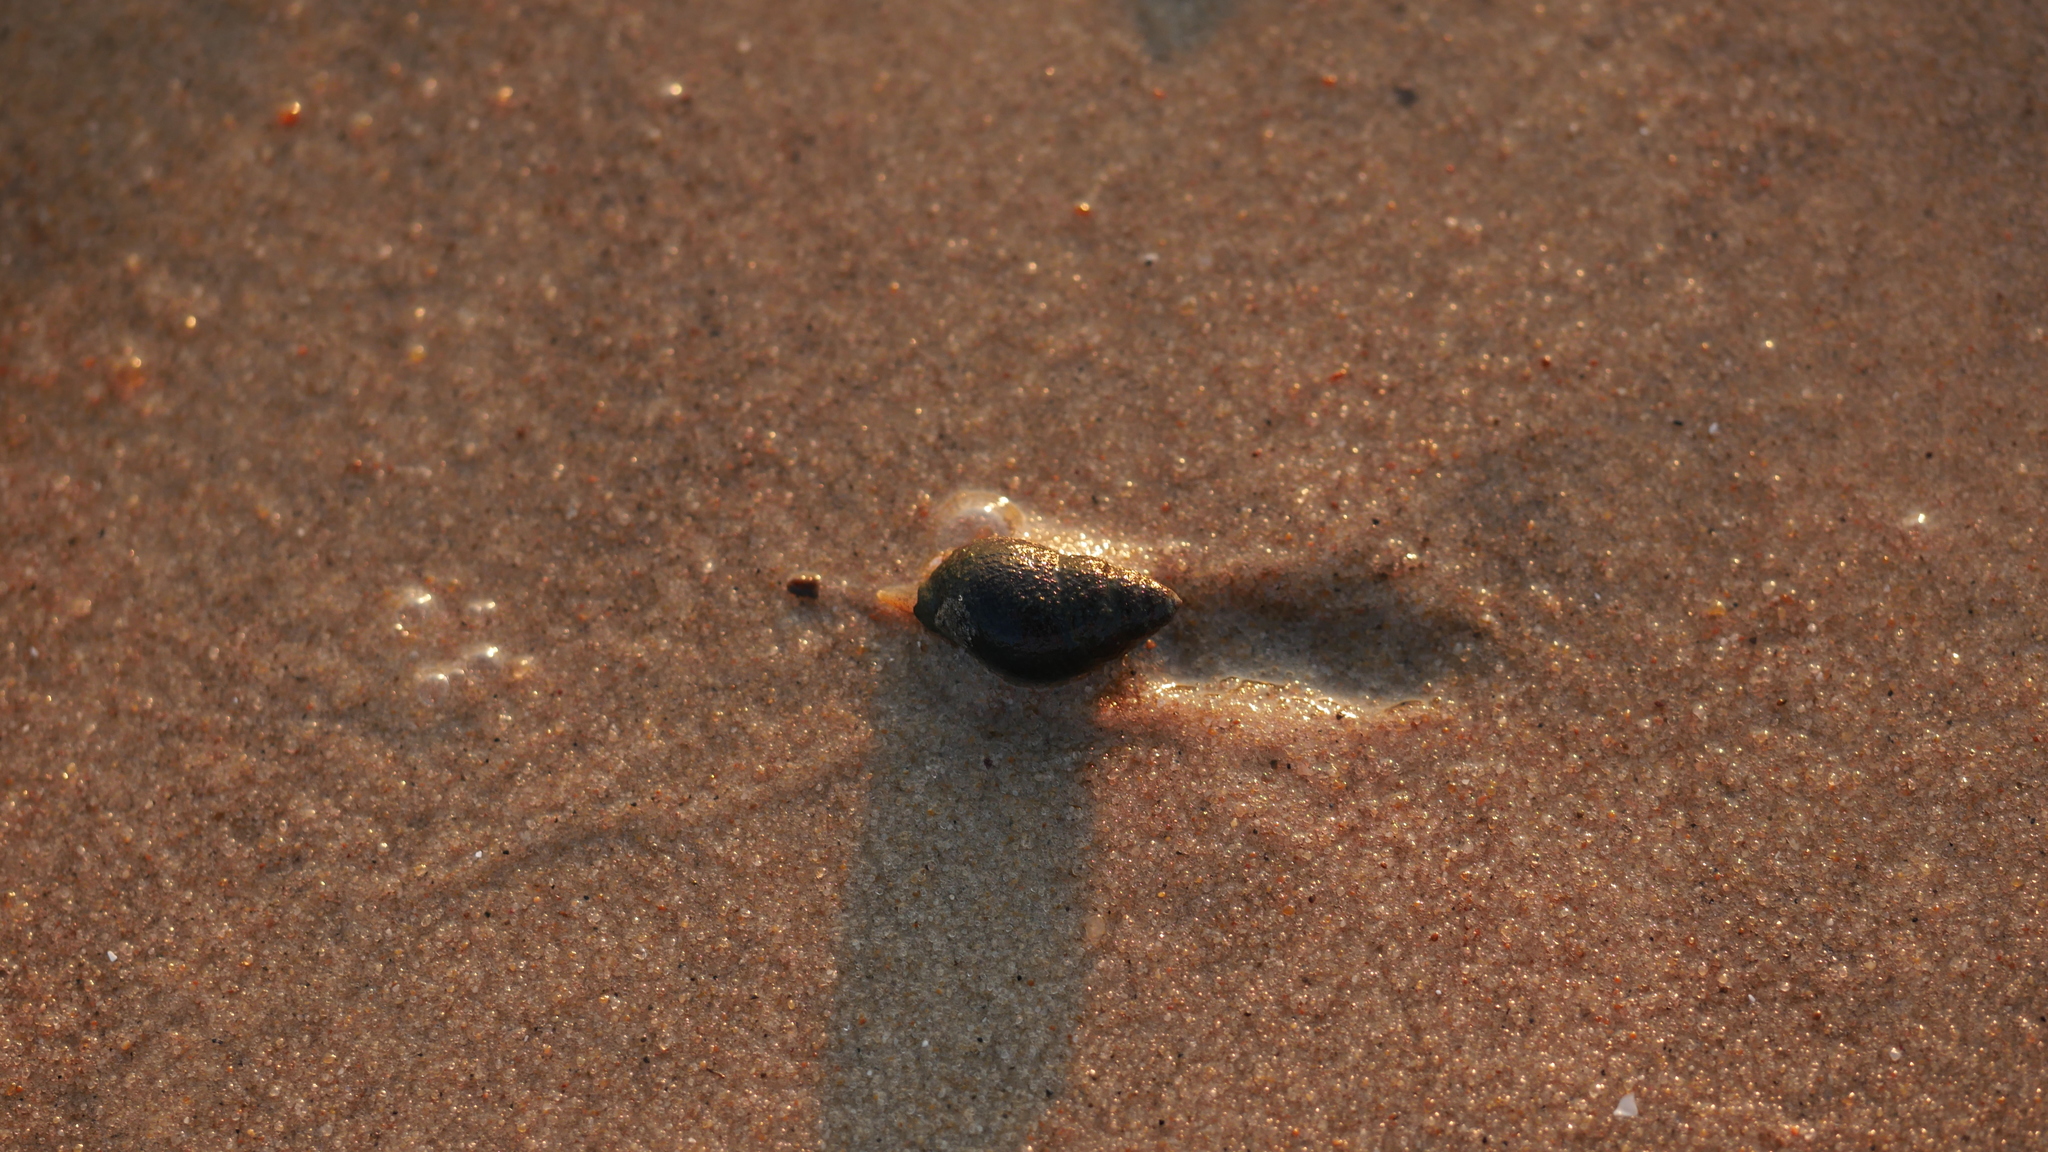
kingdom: Animalia
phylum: Mollusca
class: Gastropoda
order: Neogastropoda
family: Nassariidae
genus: Ilyanassa
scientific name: Ilyanassa obsoleta
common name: Eastern mudsnail
